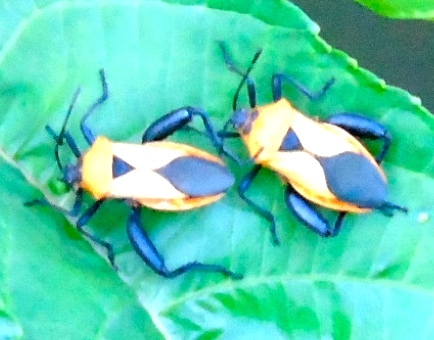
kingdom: Animalia
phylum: Arthropoda
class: Insecta
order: Hemiptera
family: Coreidae
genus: Sagotylus
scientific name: Sagotylus confluens
